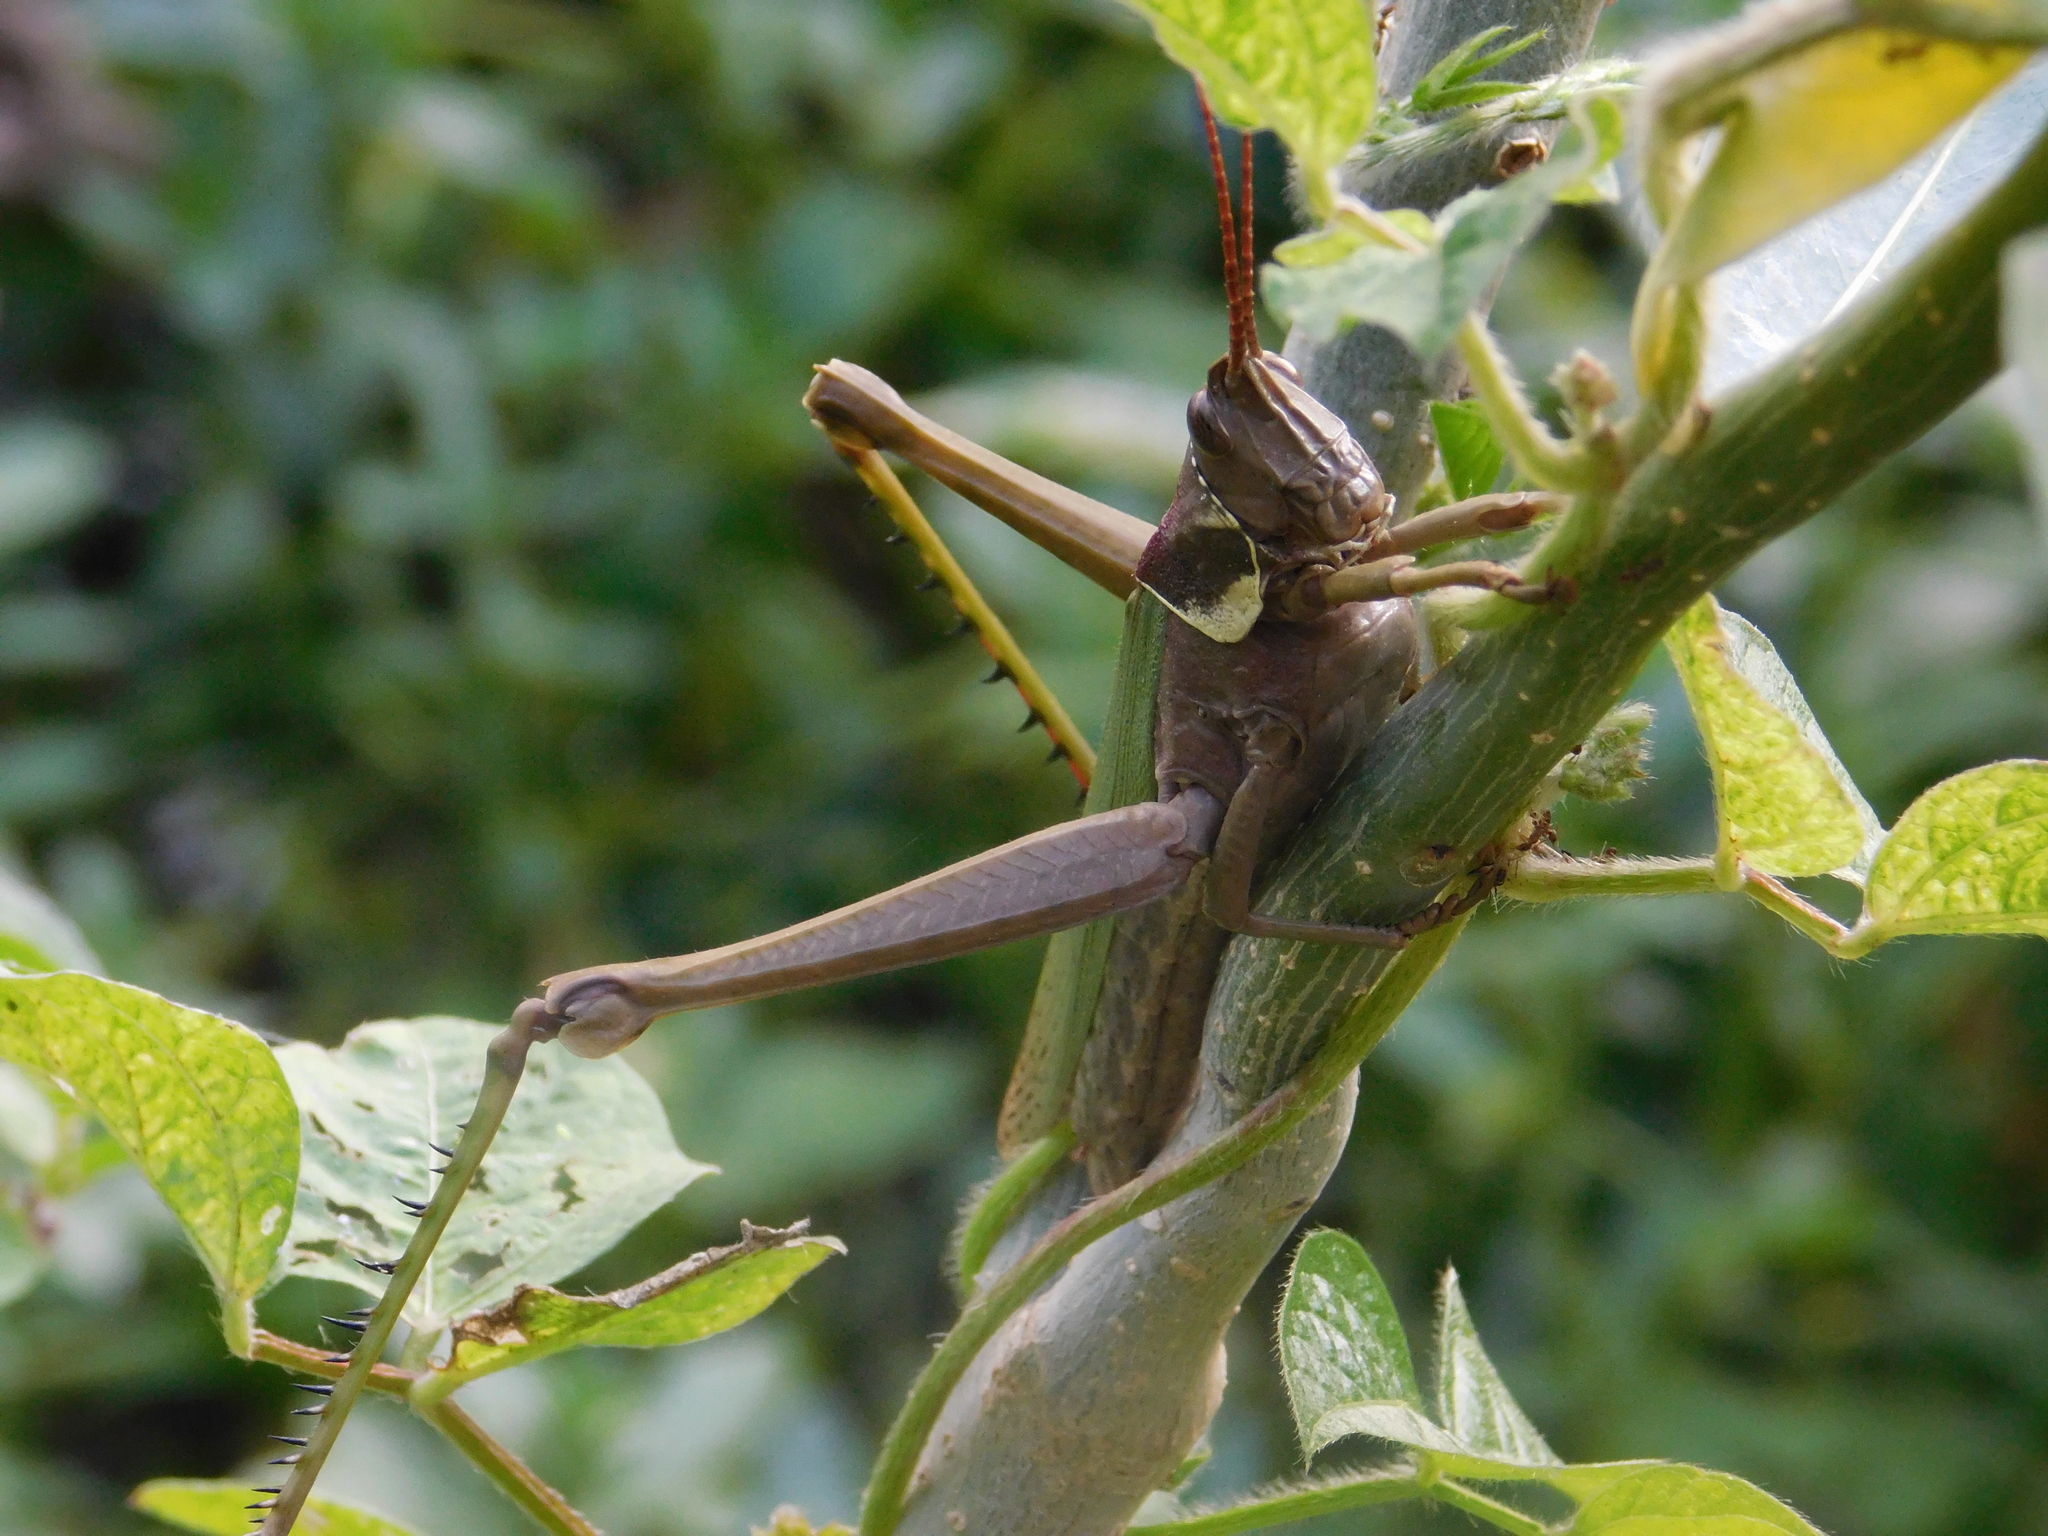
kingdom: Animalia
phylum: Arthropoda
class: Insecta
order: Orthoptera
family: Romaleidae
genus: Coryacris
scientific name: Coryacris angustipennis
